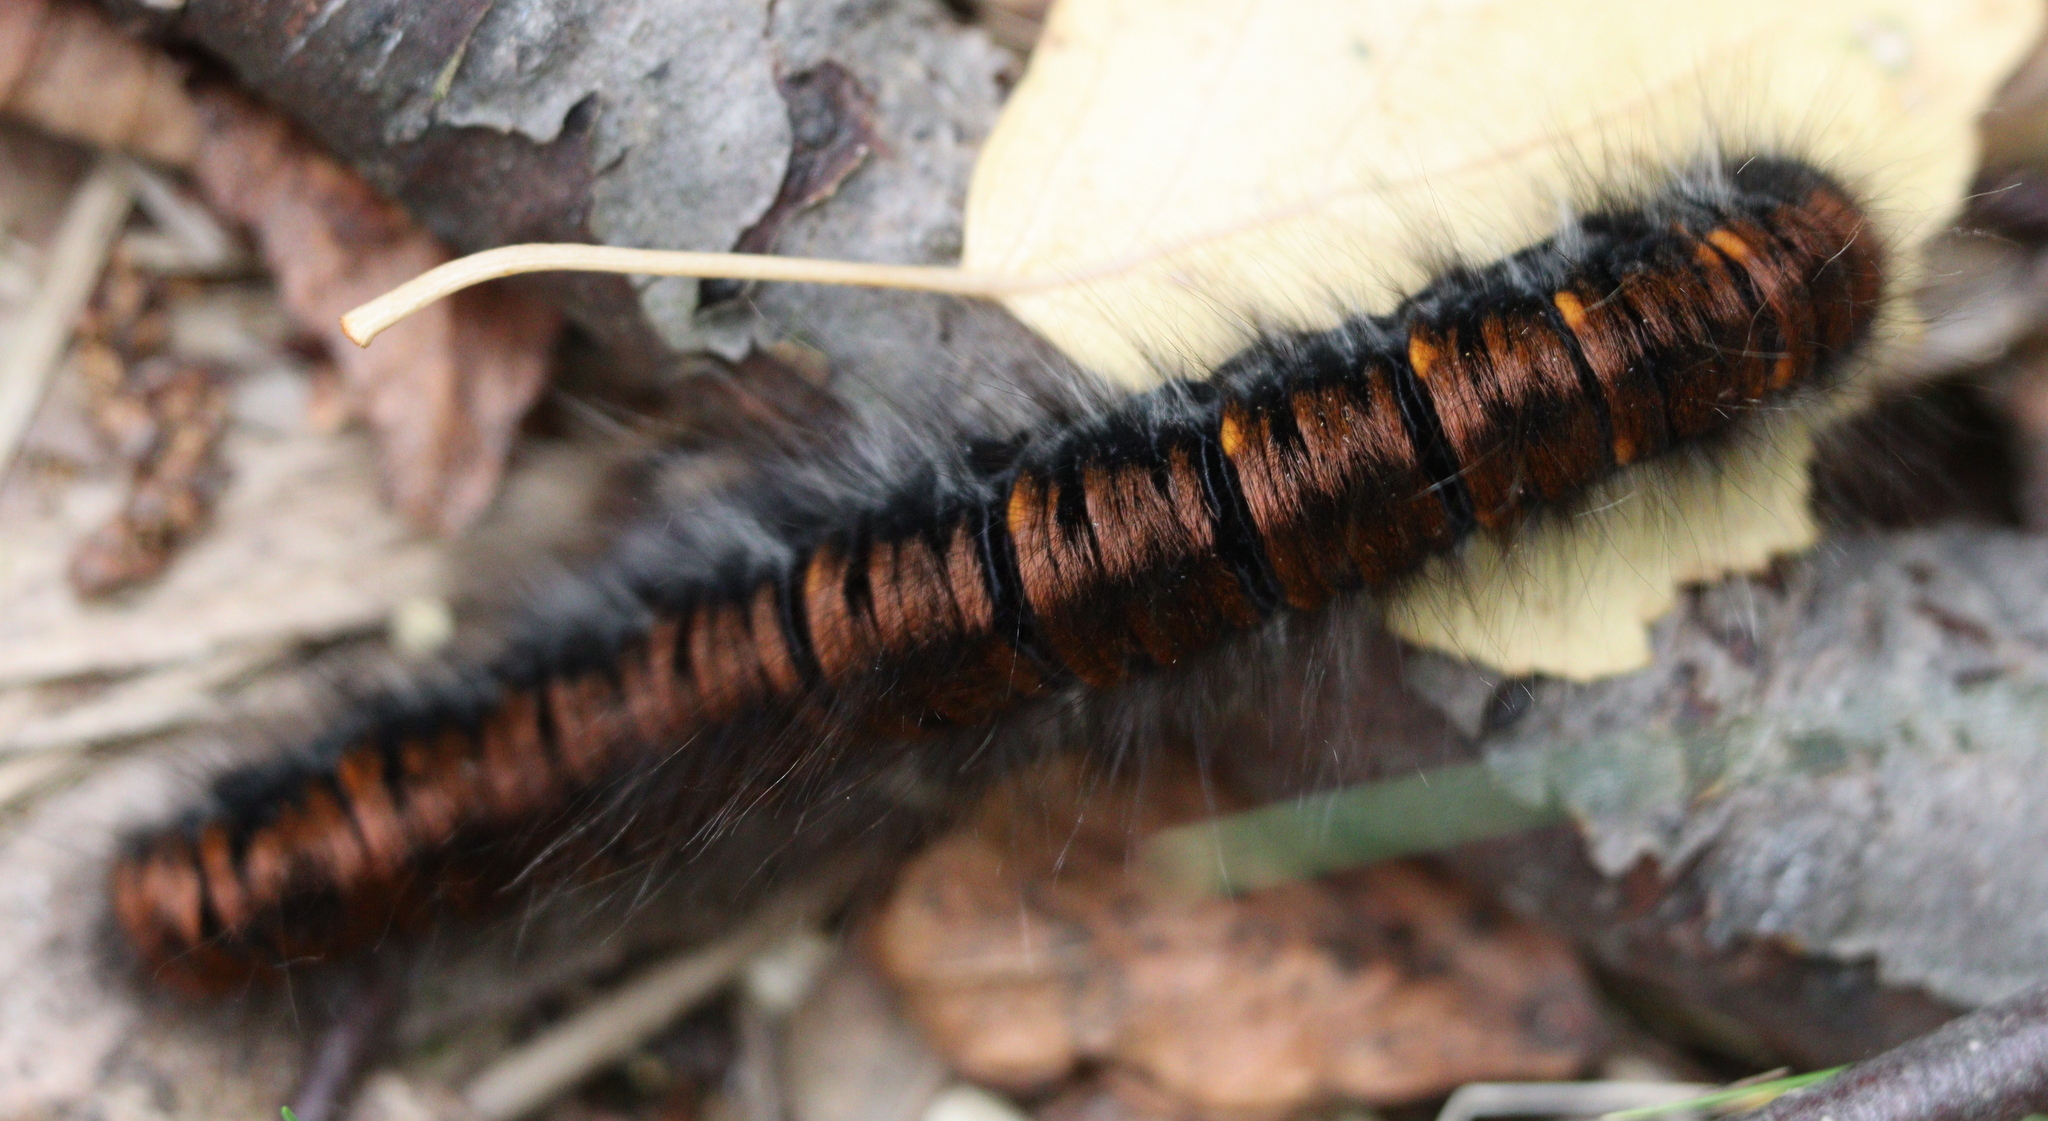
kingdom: Animalia
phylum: Arthropoda
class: Insecta
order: Lepidoptera
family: Lasiocampidae
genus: Macrothylacia
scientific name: Macrothylacia rubi
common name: Fox moth
